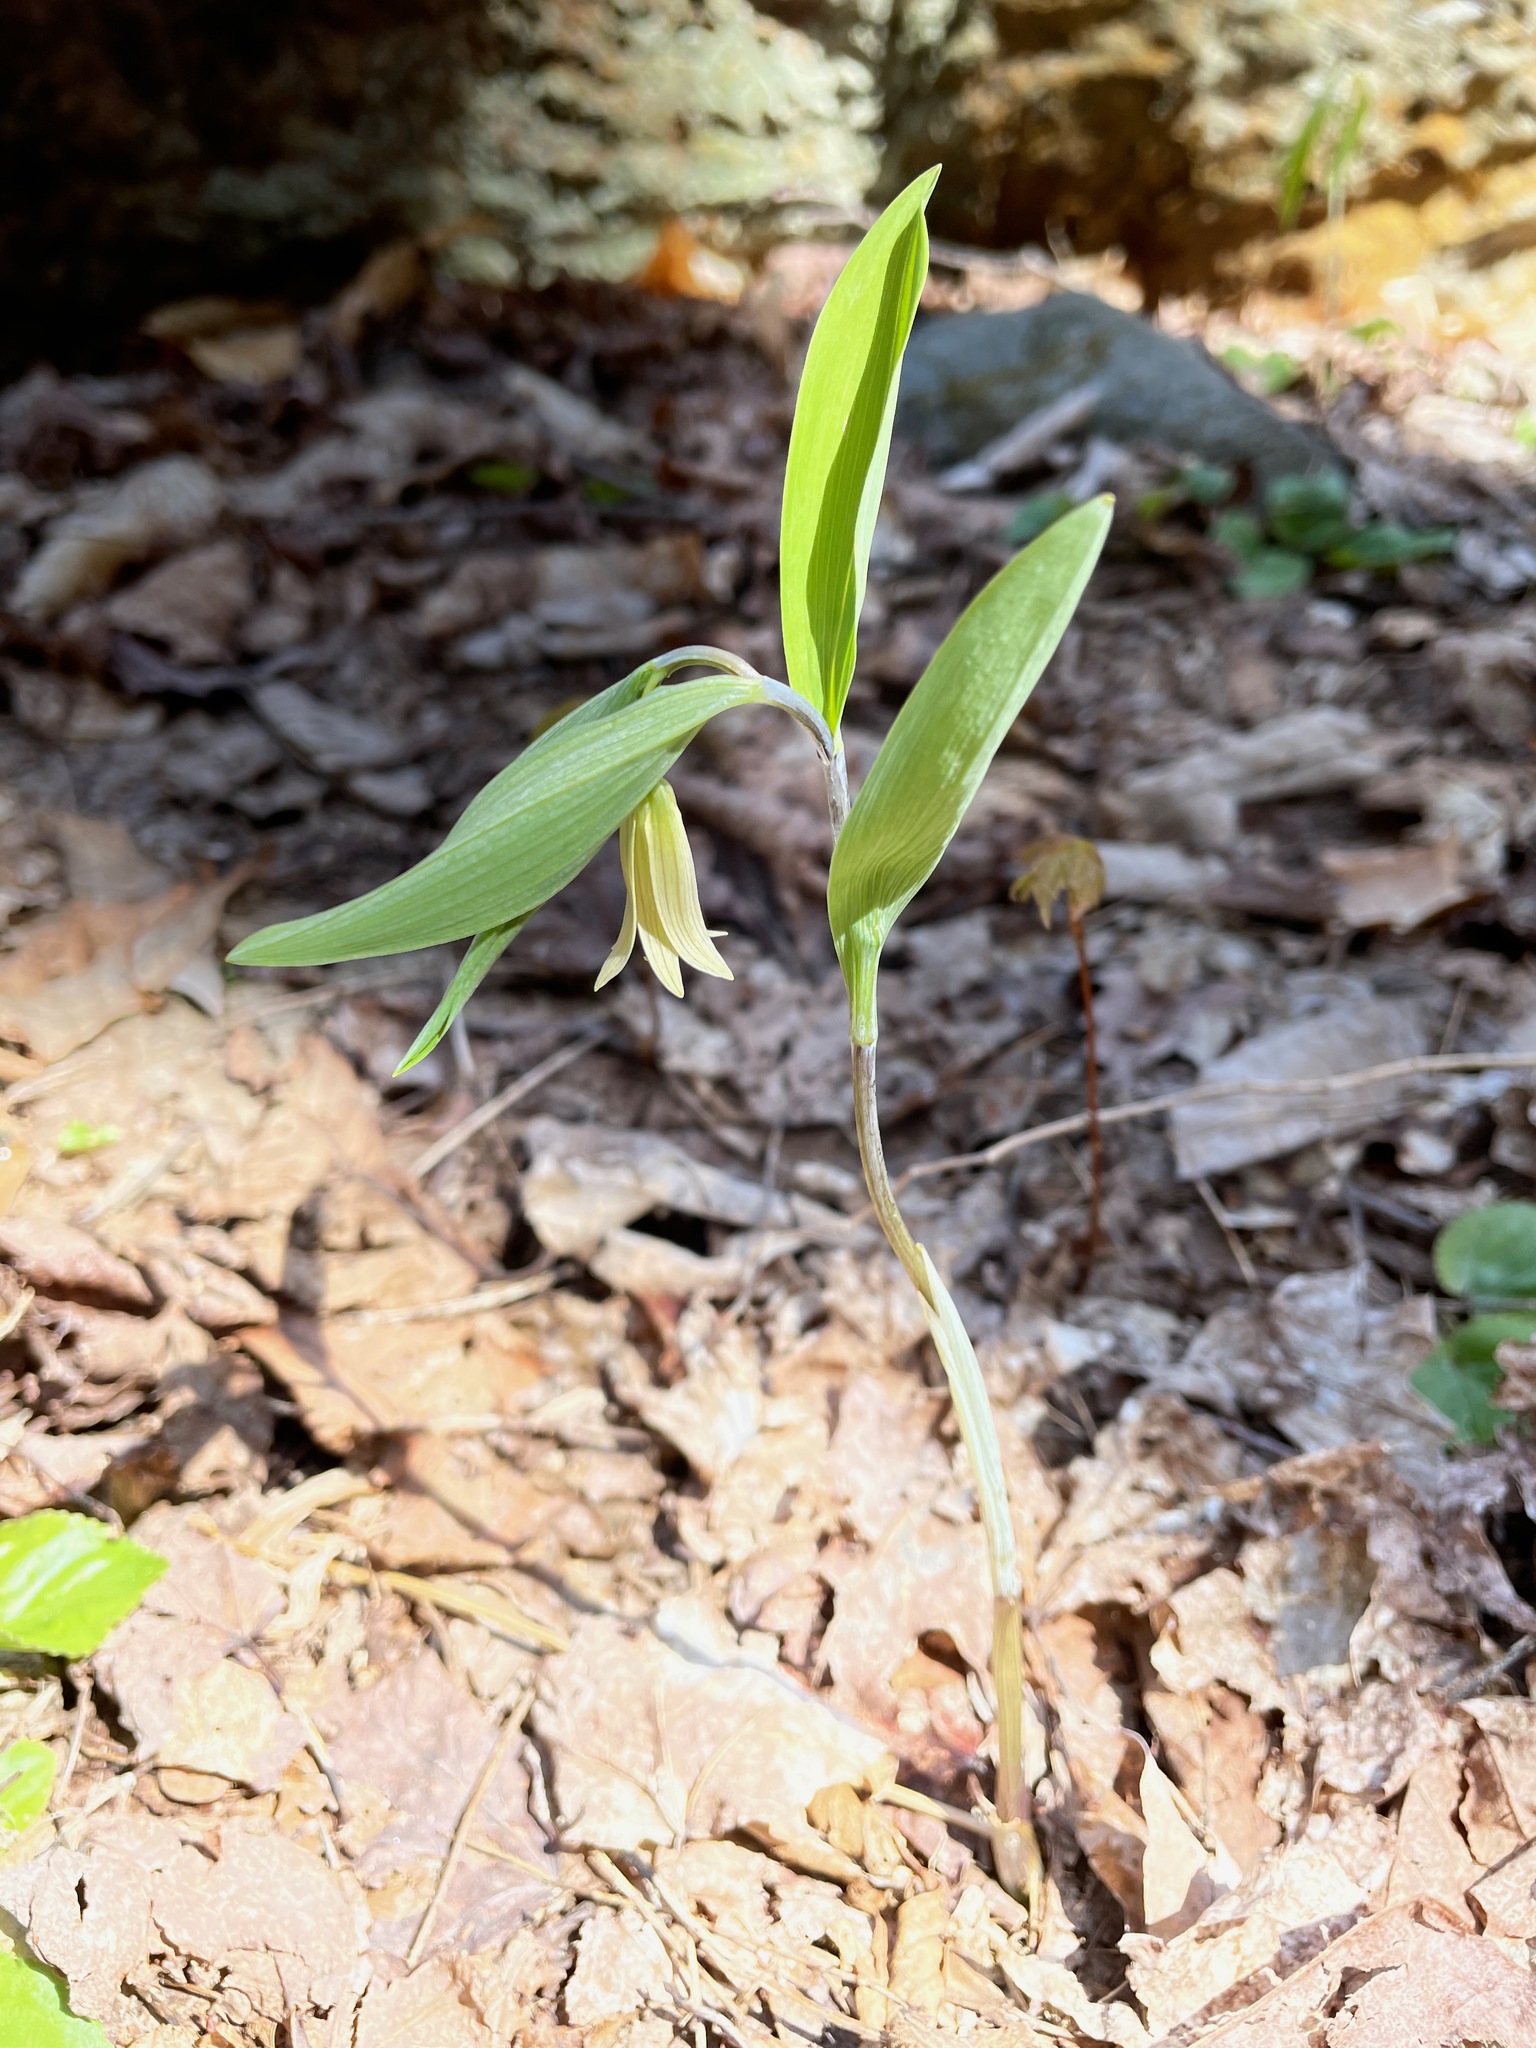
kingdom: Plantae
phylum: Tracheophyta
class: Liliopsida
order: Liliales
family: Colchicaceae
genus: Uvularia
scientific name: Uvularia sessilifolia
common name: Straw-lily
